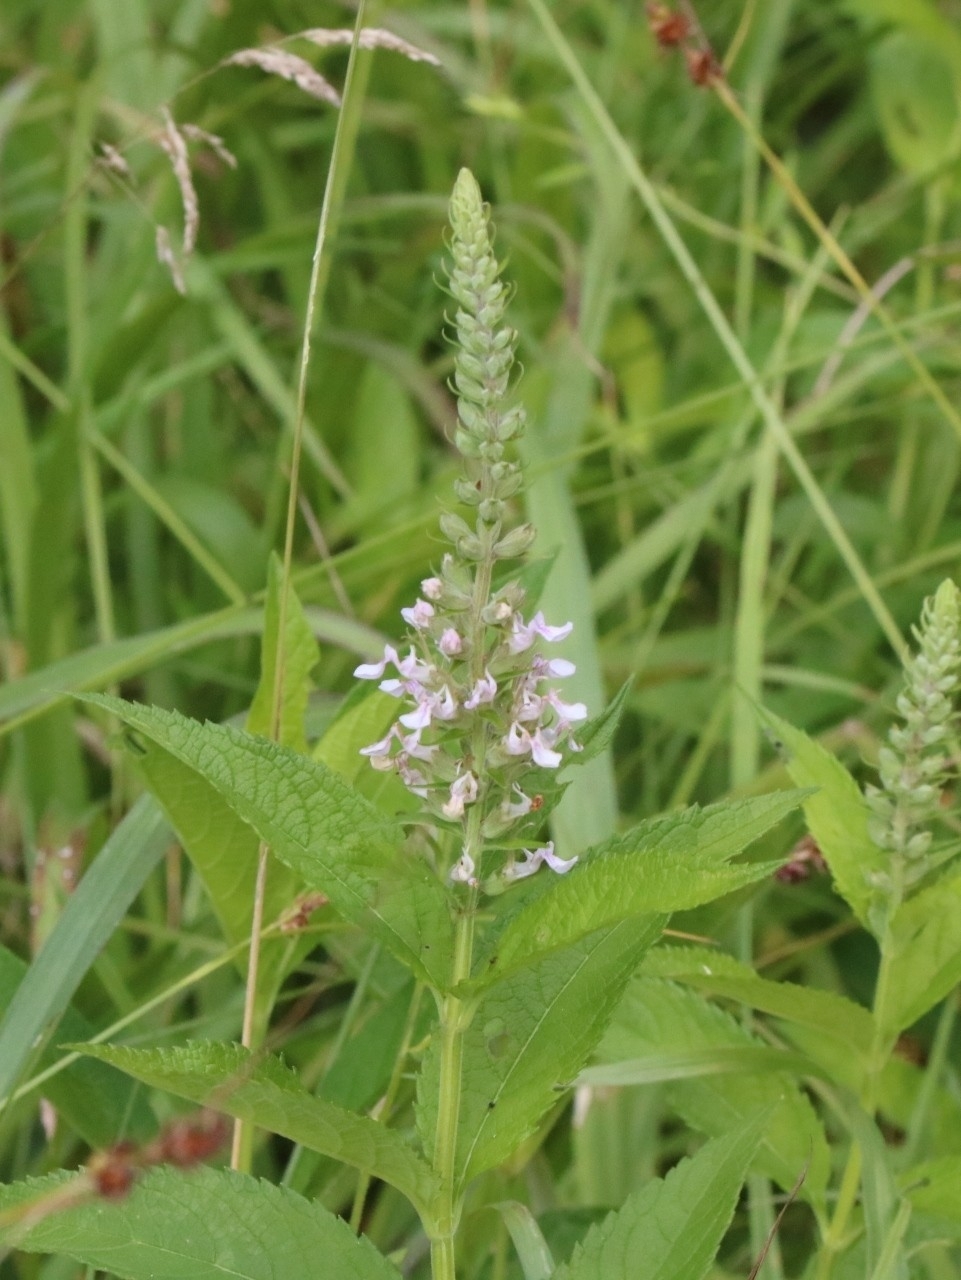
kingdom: Plantae
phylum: Tracheophyta
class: Magnoliopsida
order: Lamiales
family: Lamiaceae
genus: Teucrium
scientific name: Teucrium canadense
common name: American germander
